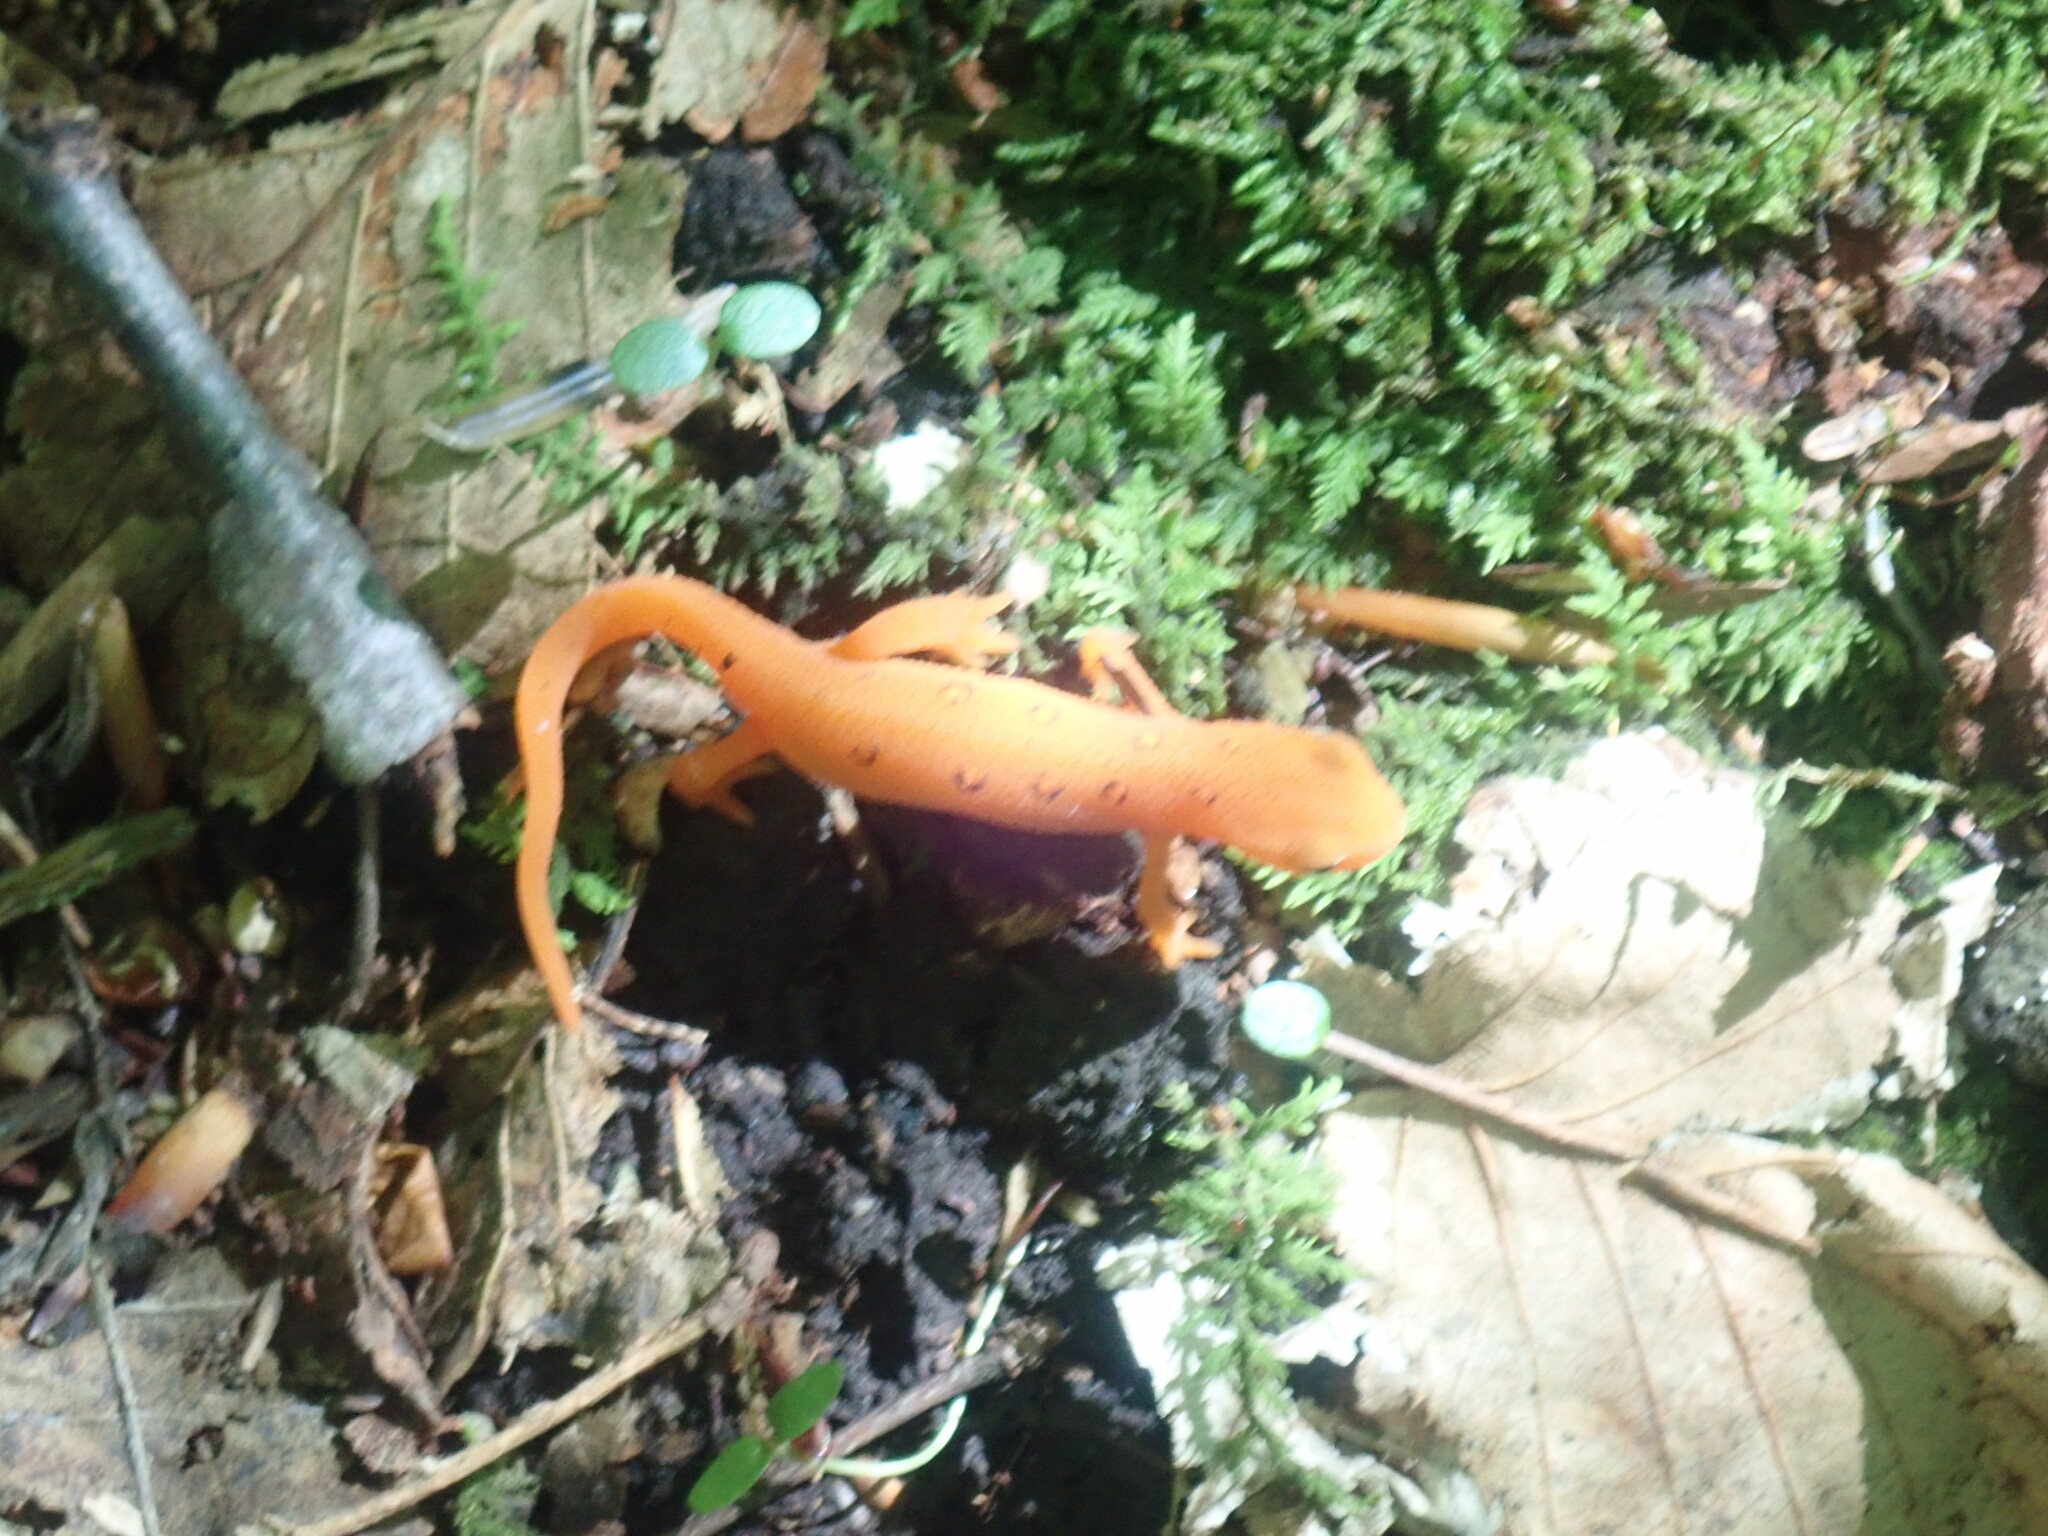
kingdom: Animalia
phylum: Chordata
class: Amphibia
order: Caudata
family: Salamandridae
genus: Notophthalmus
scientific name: Notophthalmus viridescens
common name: Eastern newt
